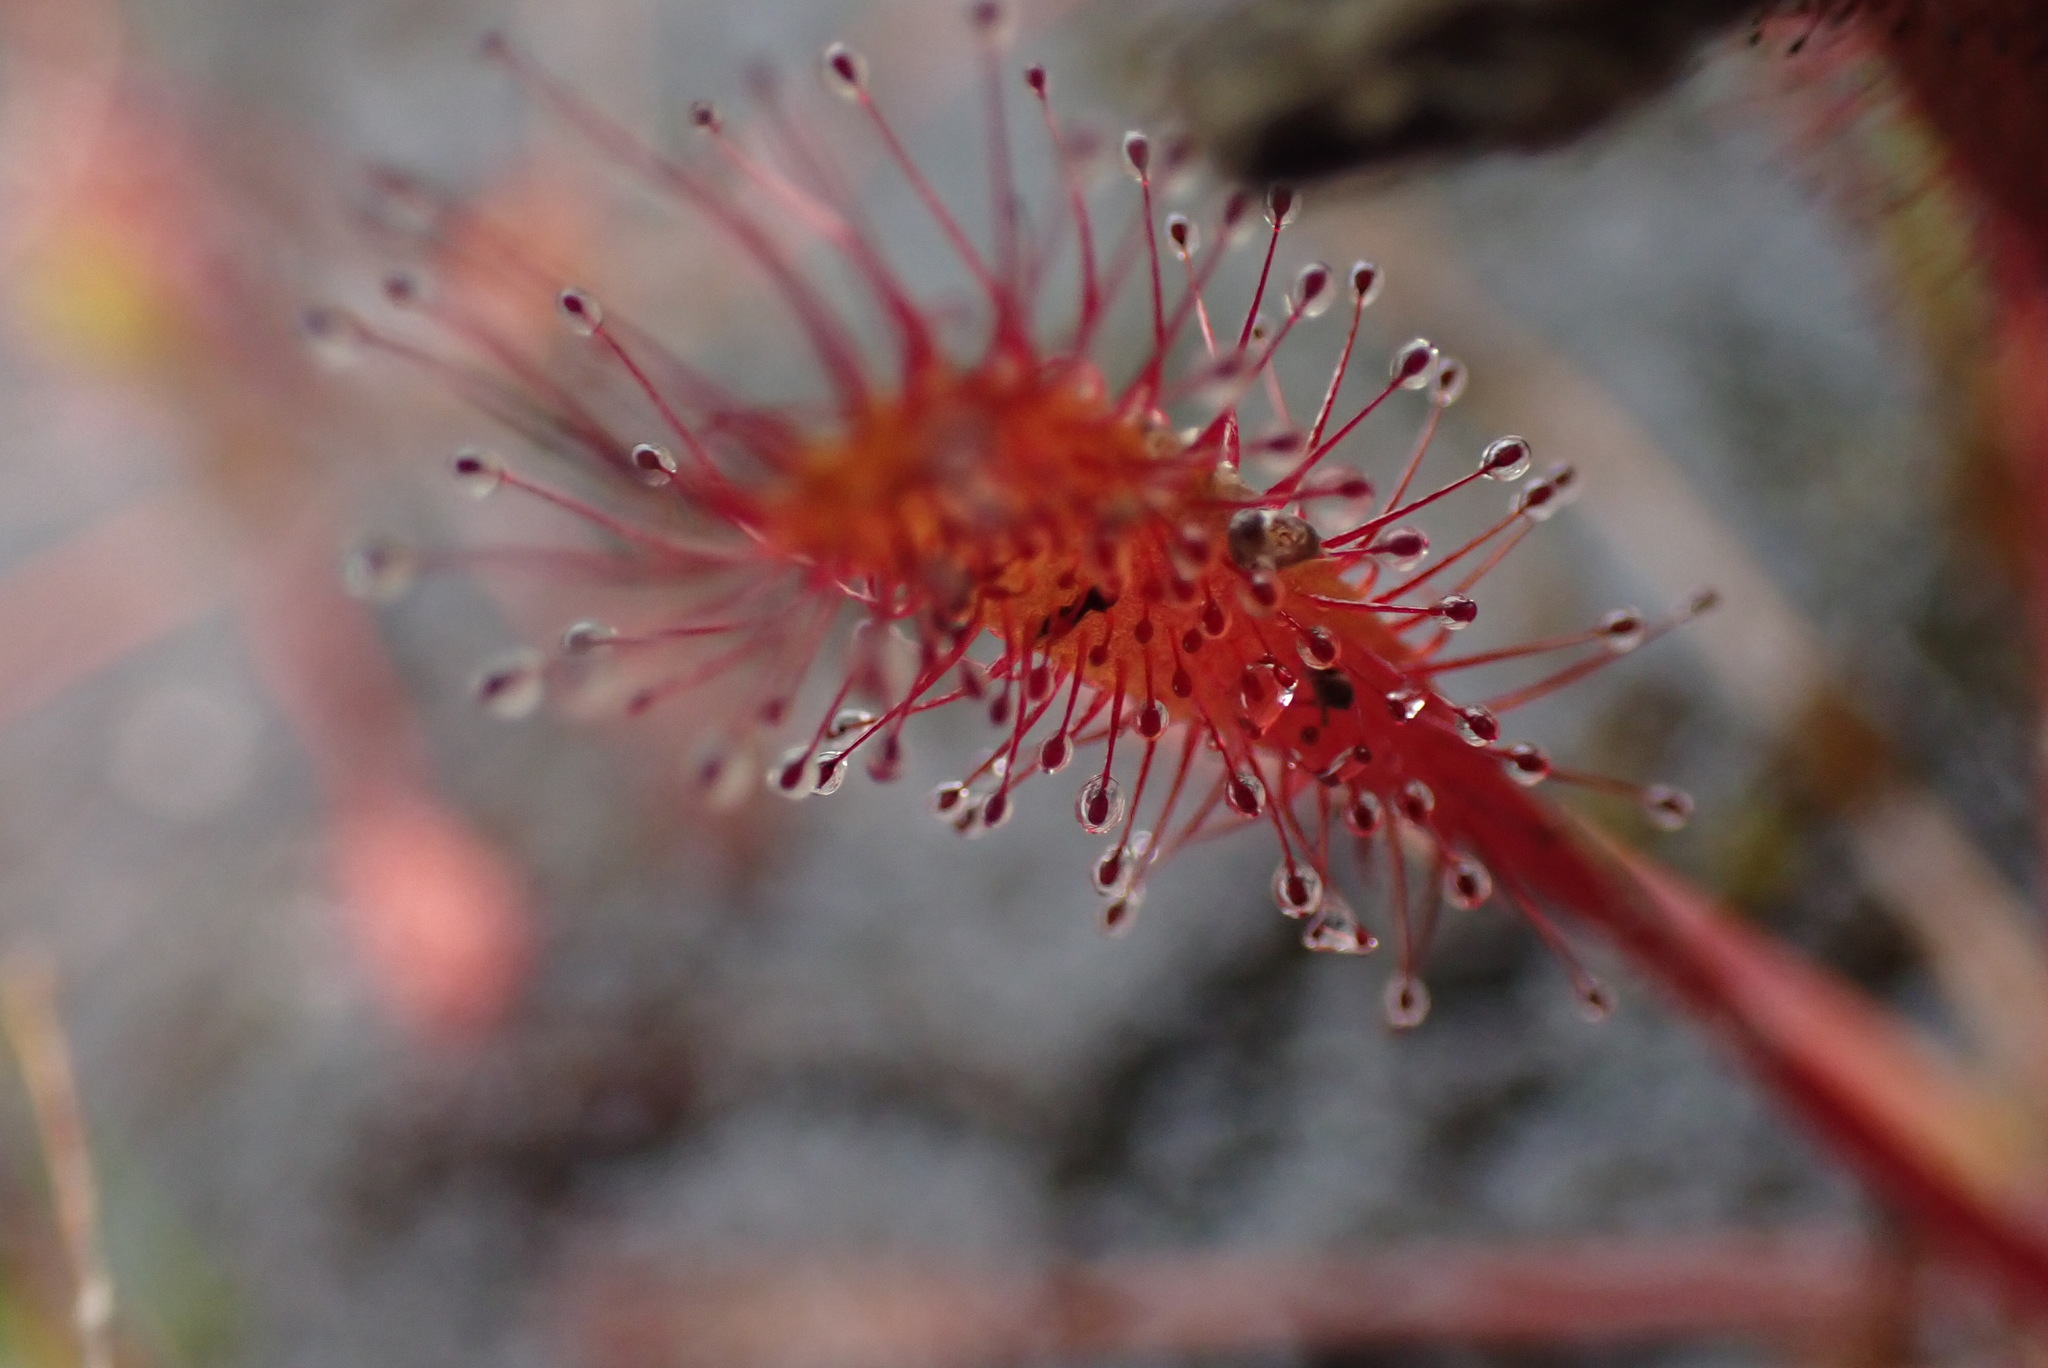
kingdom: Plantae
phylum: Tracheophyta
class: Magnoliopsida
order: Caryophyllales
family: Droseraceae
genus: Drosera
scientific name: Drosera anglica
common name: Great sundew
